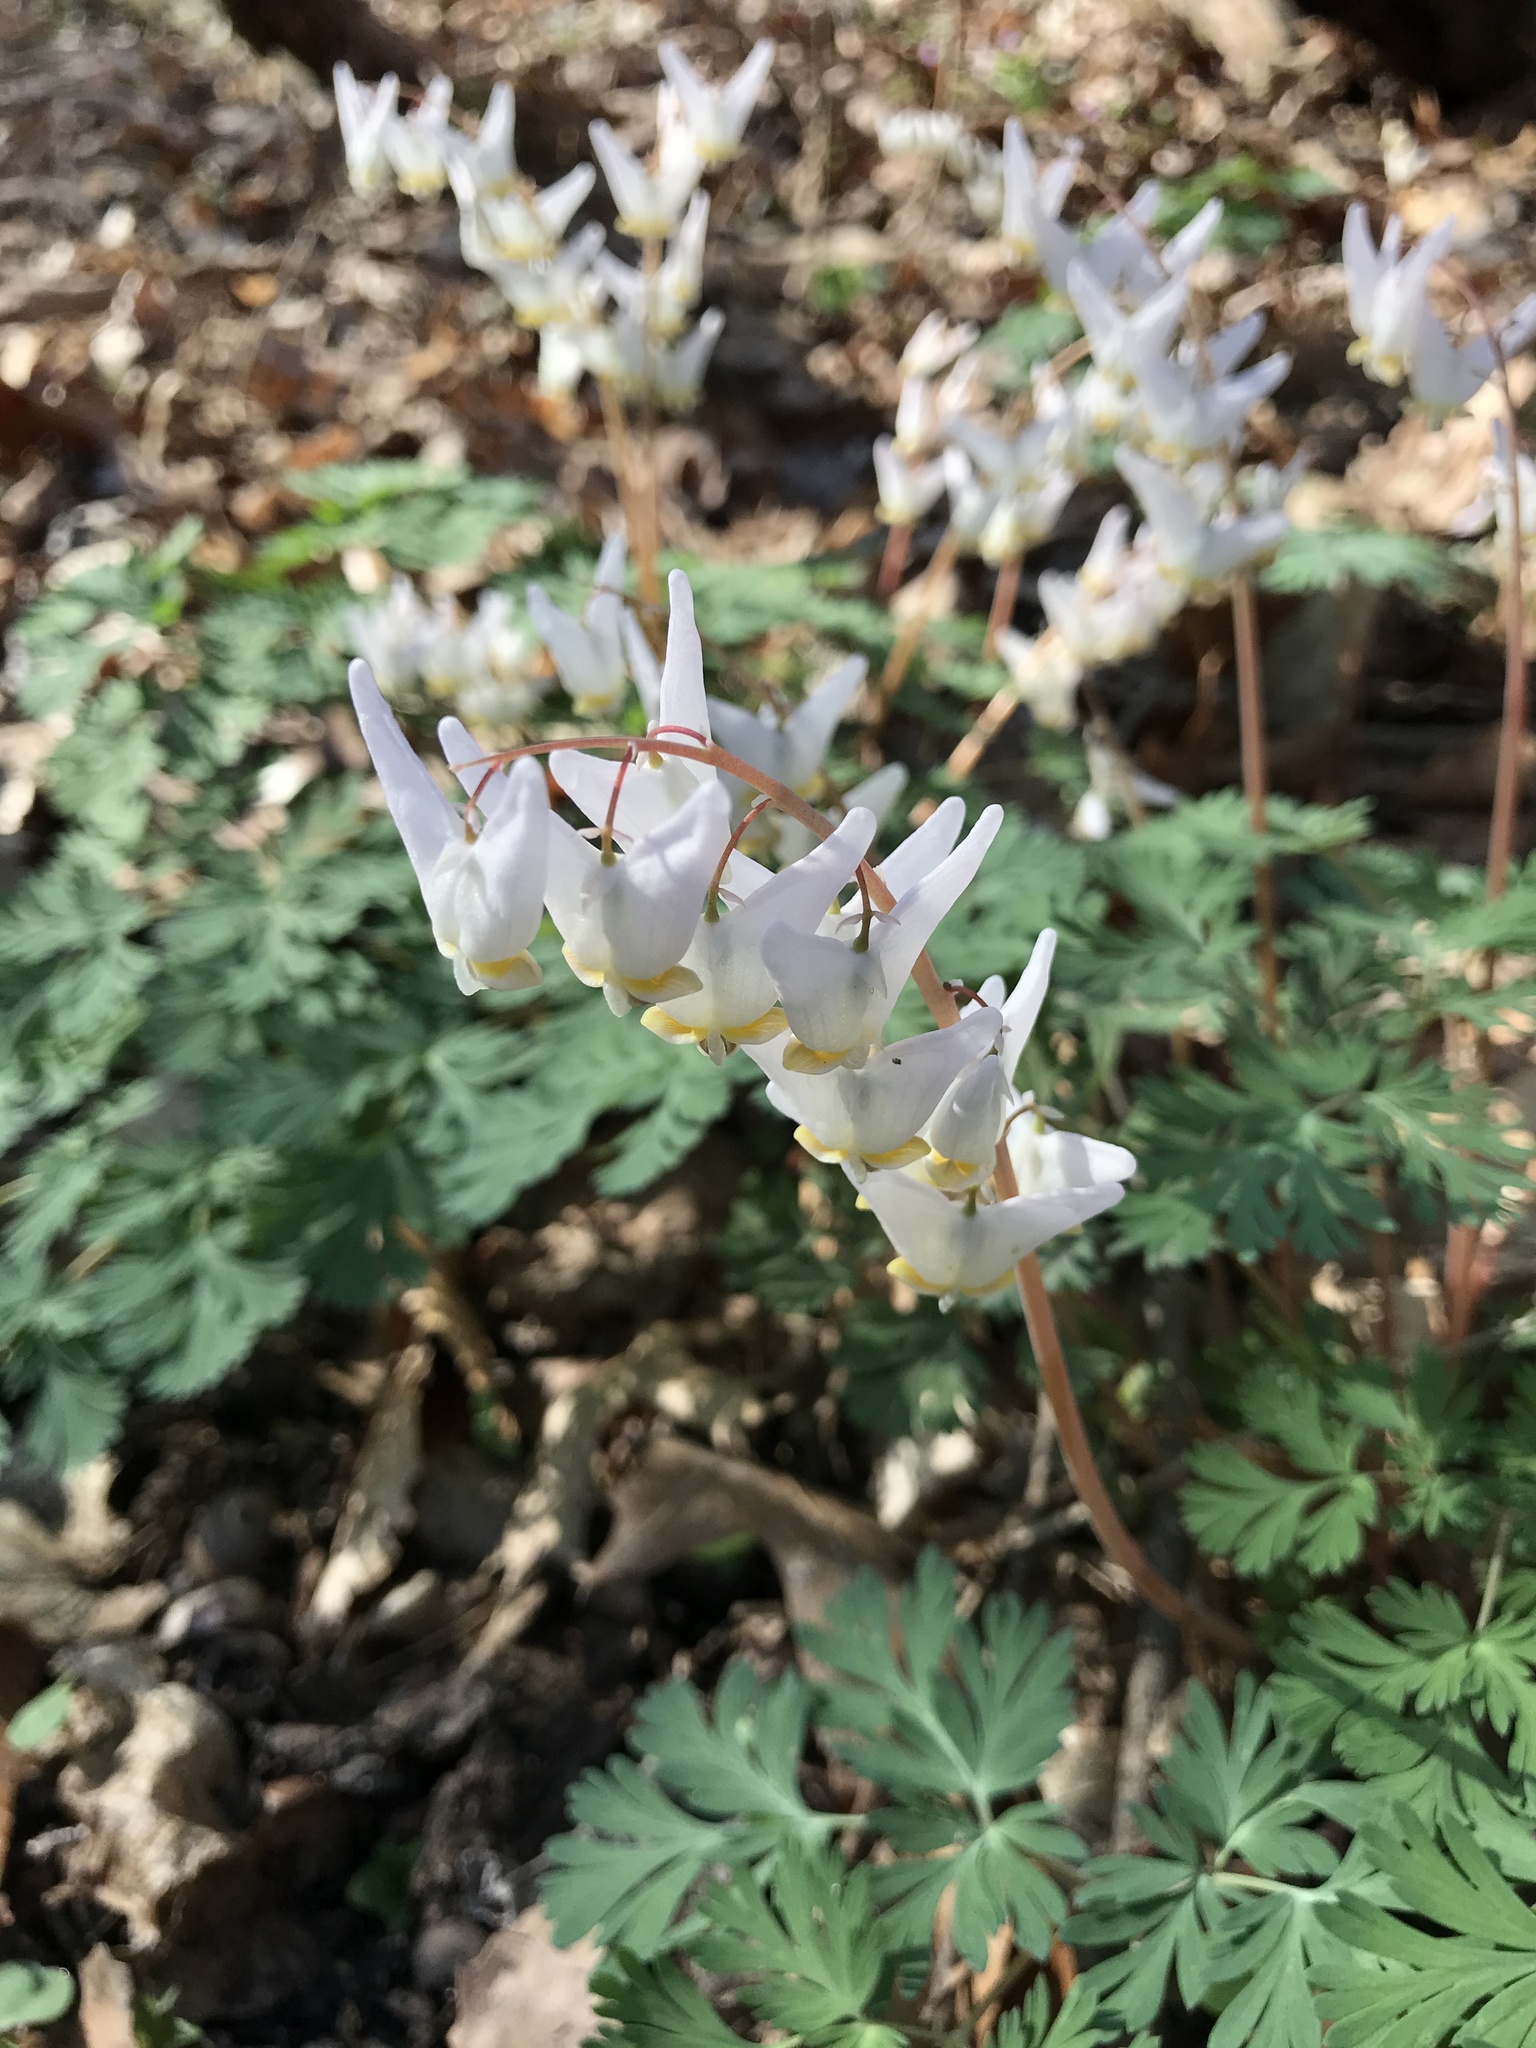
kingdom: Plantae
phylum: Tracheophyta
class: Magnoliopsida
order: Ranunculales
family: Papaveraceae
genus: Dicentra
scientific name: Dicentra cucullaria
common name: Dutchman's breeches
